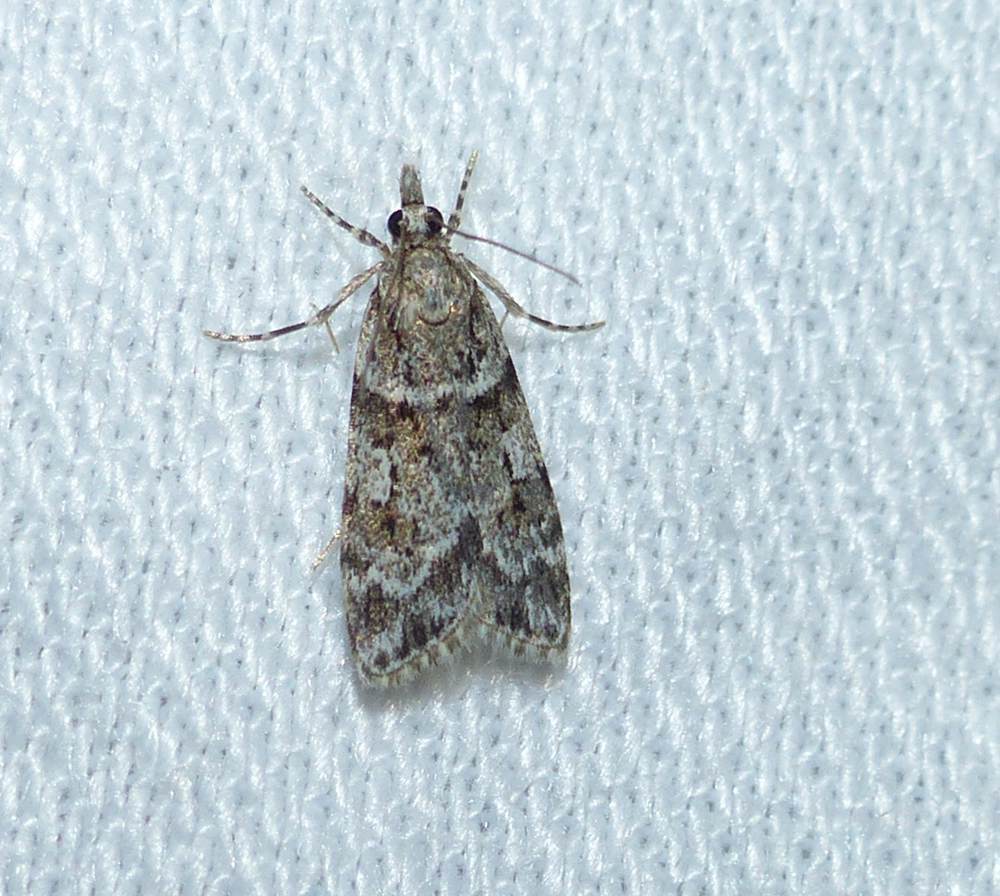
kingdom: Animalia
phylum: Arthropoda
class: Insecta
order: Lepidoptera
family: Crambidae
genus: Scoparia
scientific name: Scoparia biplagialis
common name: Double-striped scoparia moth
